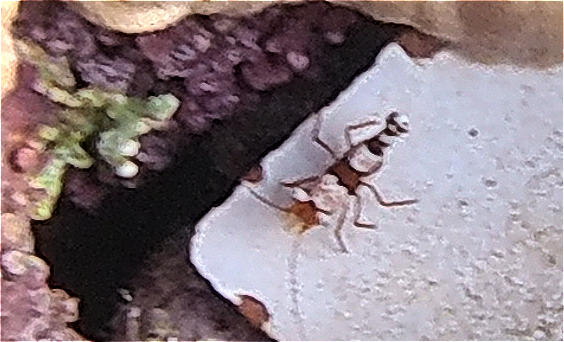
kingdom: Animalia
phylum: Arthropoda
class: Malacostraca
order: Decapoda
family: Thoridae
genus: Thor
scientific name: Thor amboinensis
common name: Squat anemone shrimp
